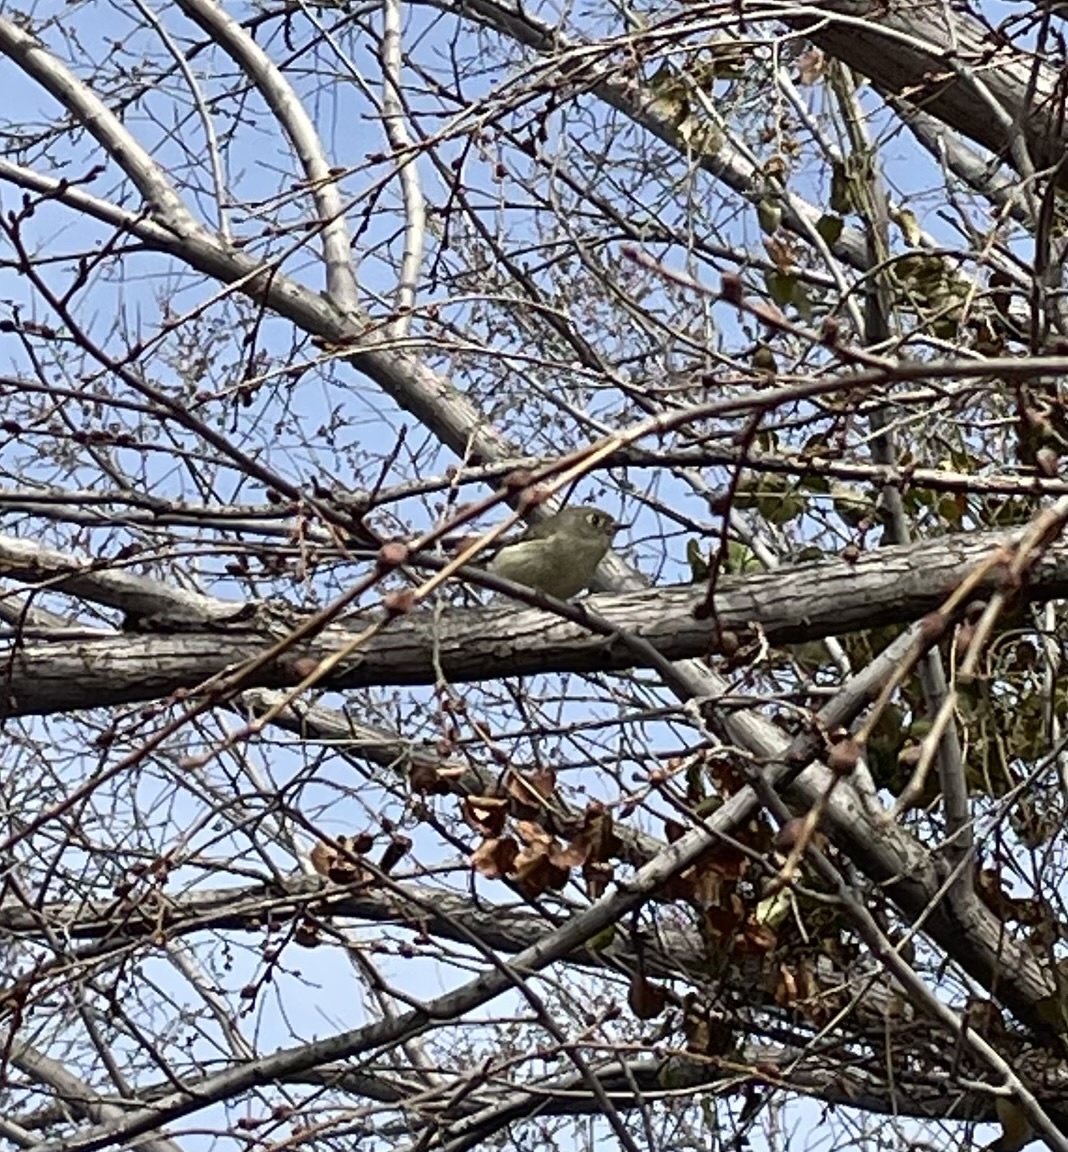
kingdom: Animalia
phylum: Chordata
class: Aves
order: Passeriformes
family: Regulidae
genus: Regulus
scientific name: Regulus calendula
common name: Ruby-crowned kinglet
